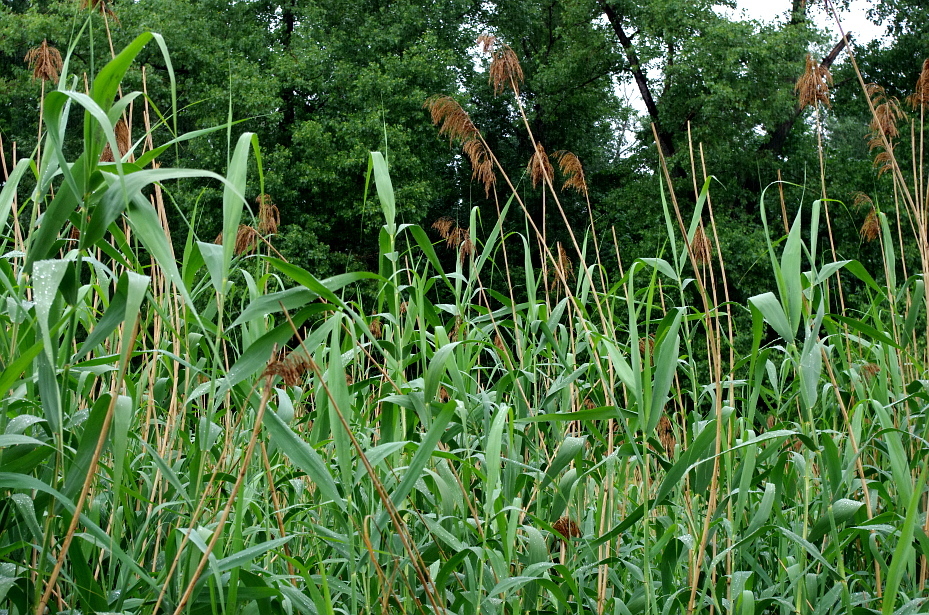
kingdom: Plantae
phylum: Tracheophyta
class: Liliopsida
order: Poales
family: Poaceae
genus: Phragmites
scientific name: Phragmites australis
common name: Common reed
